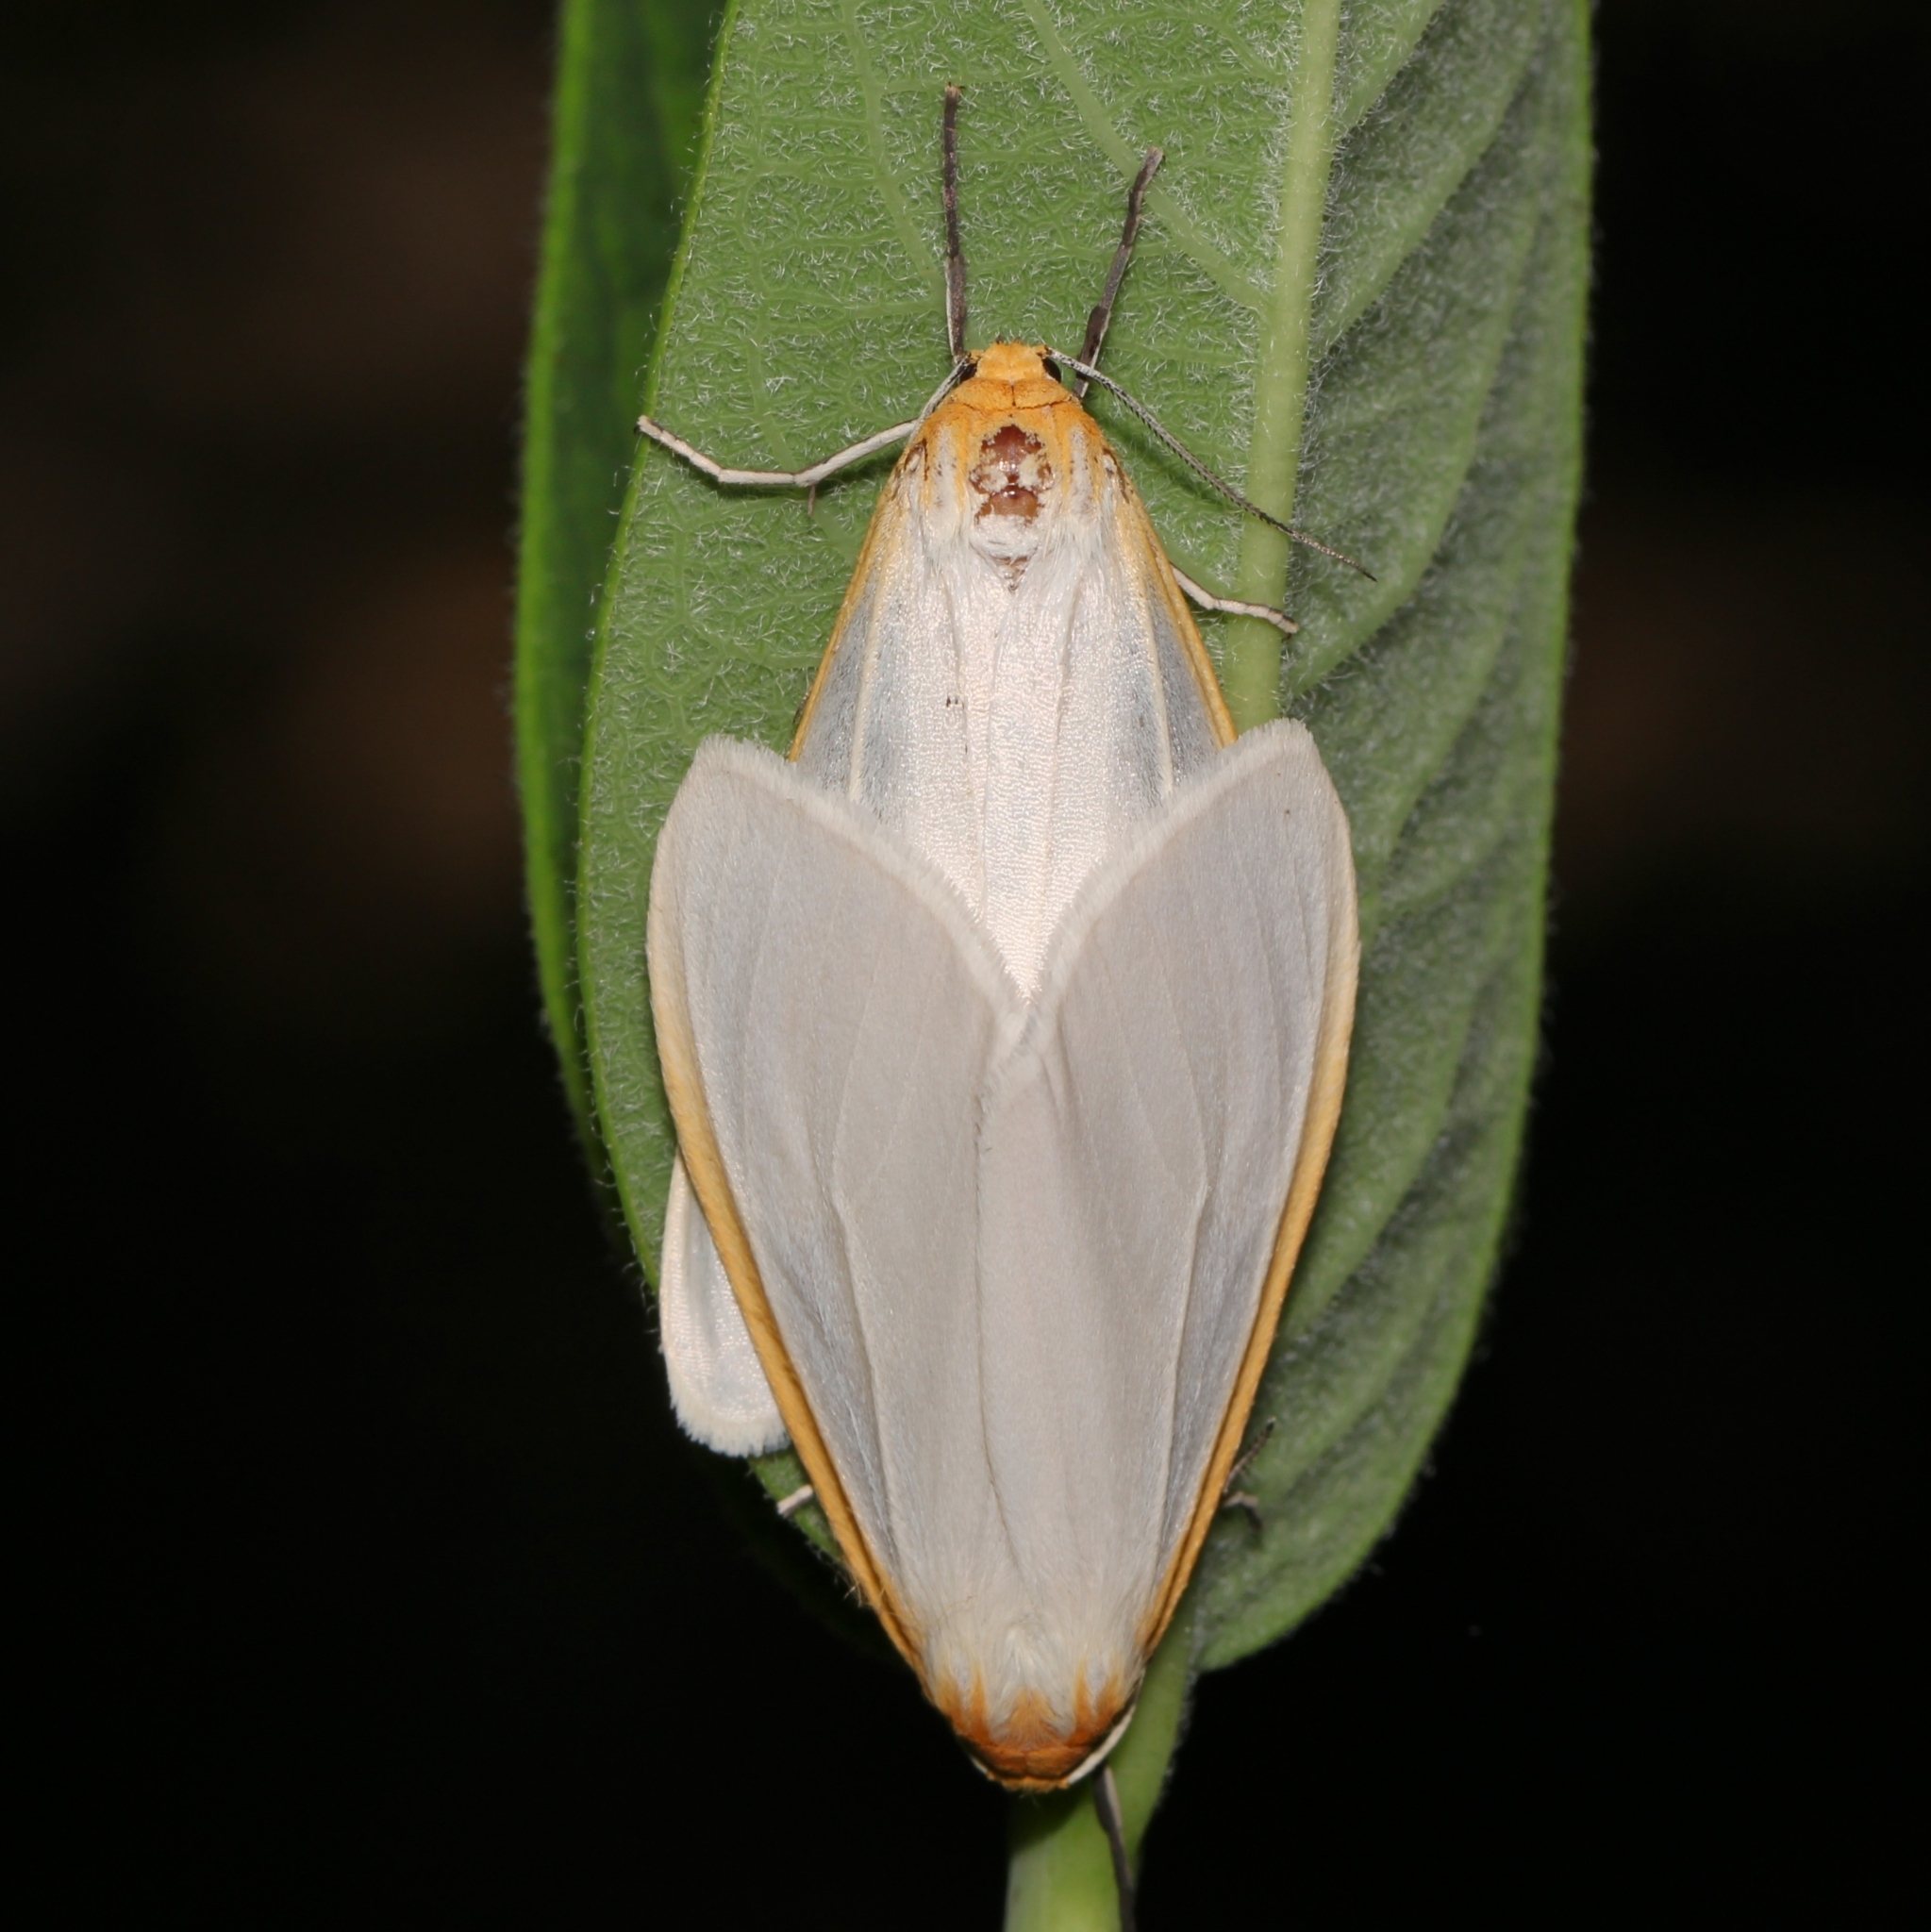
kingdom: Animalia
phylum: Arthropoda
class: Insecta
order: Lepidoptera
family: Erebidae
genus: Cycnia
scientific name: Cycnia tenera
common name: Delicate cycnia moth
